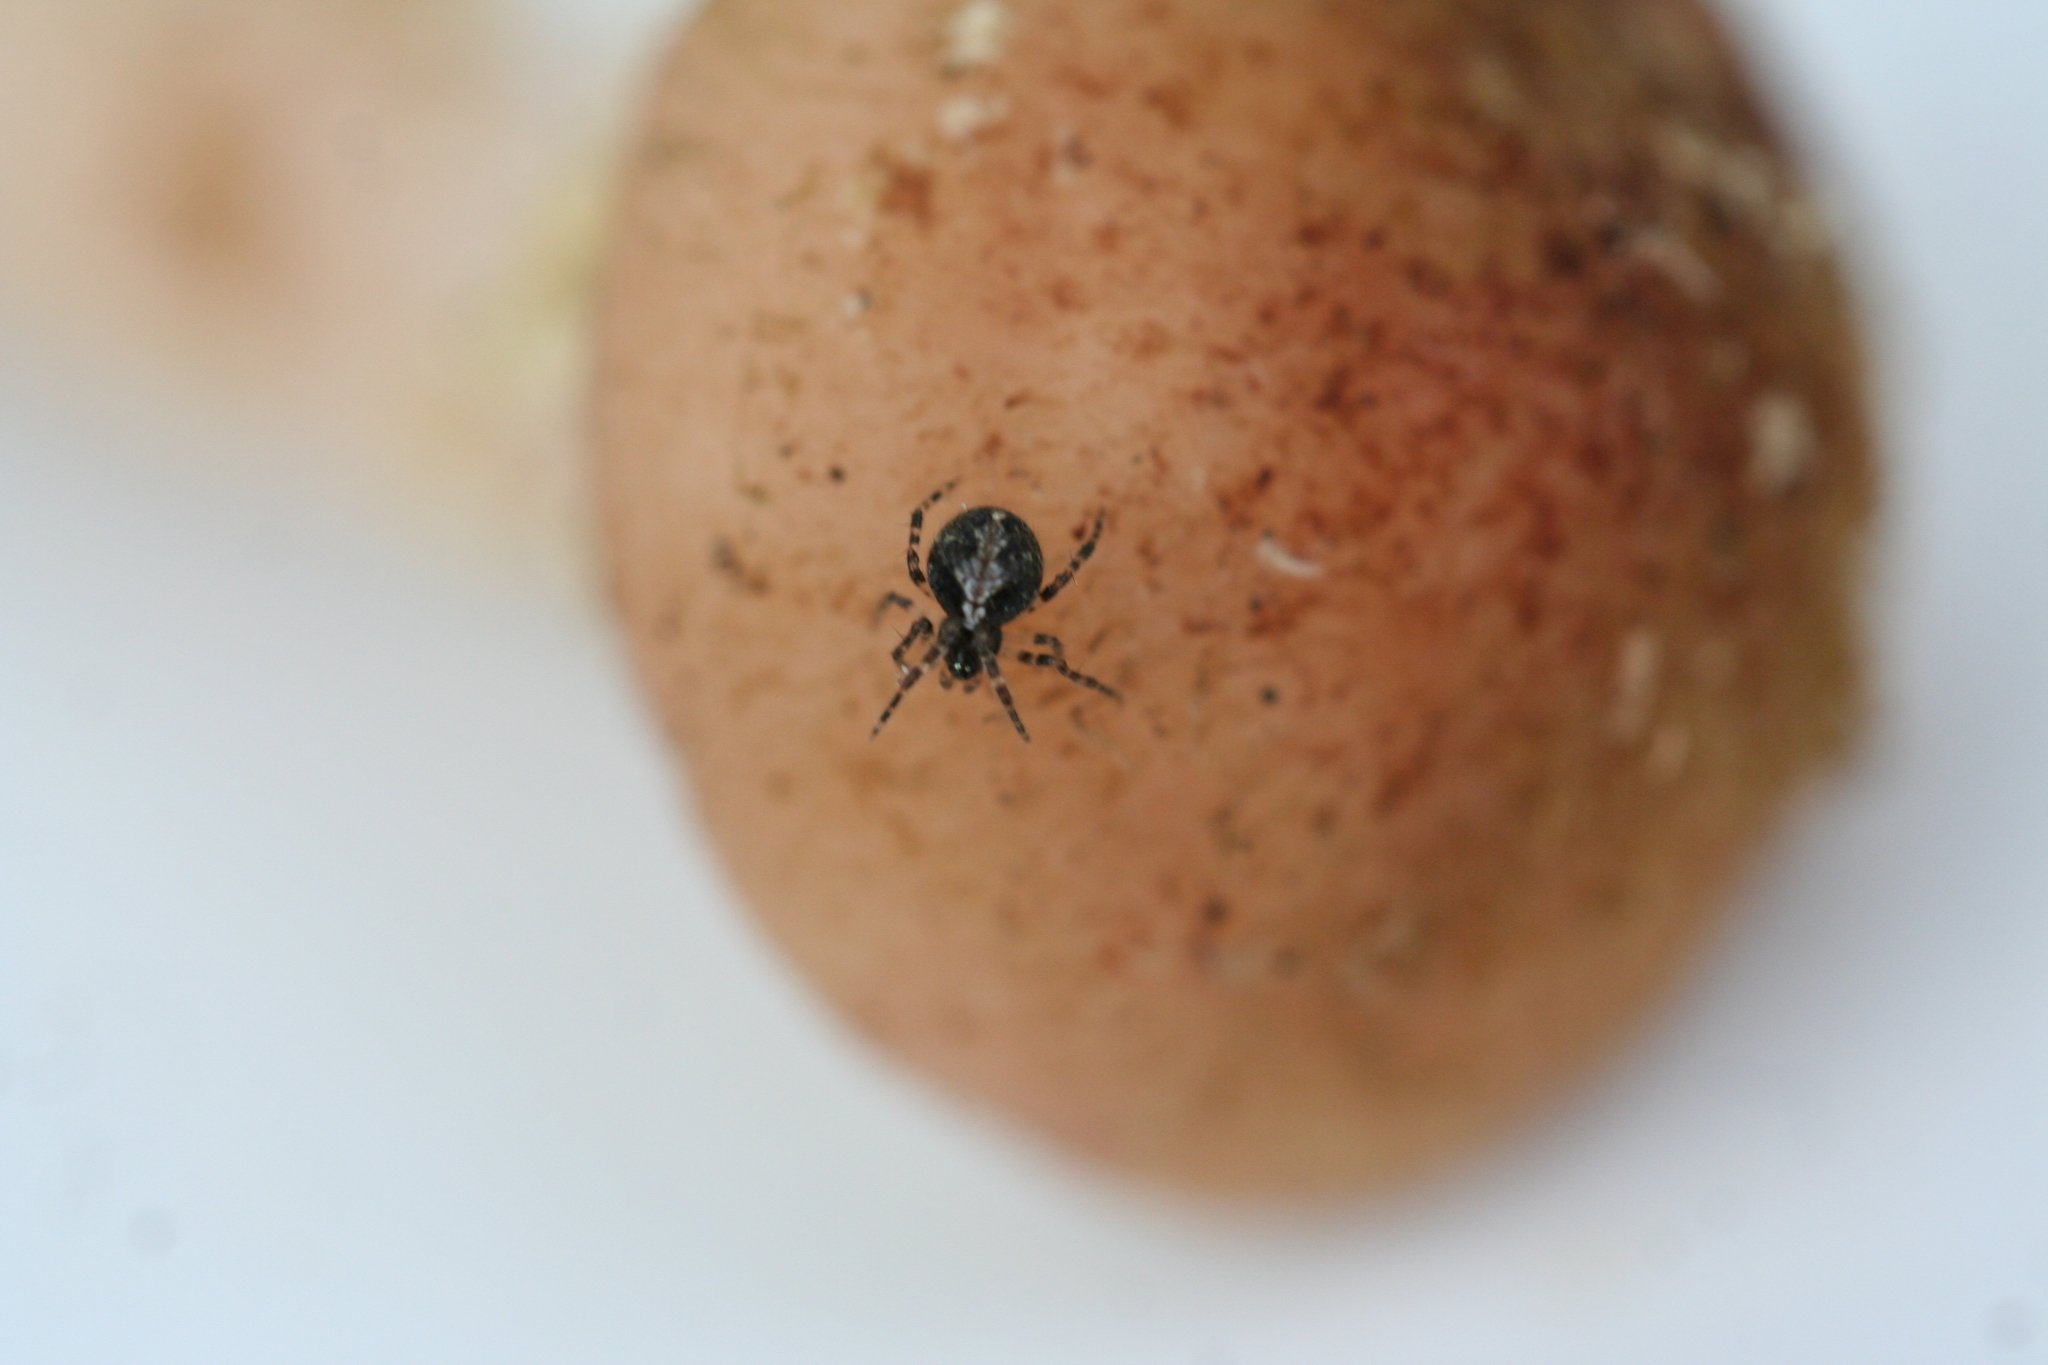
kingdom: Animalia
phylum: Arthropoda
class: Arachnida
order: Araneae
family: Theridiidae
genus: Theridion
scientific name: Theridion
